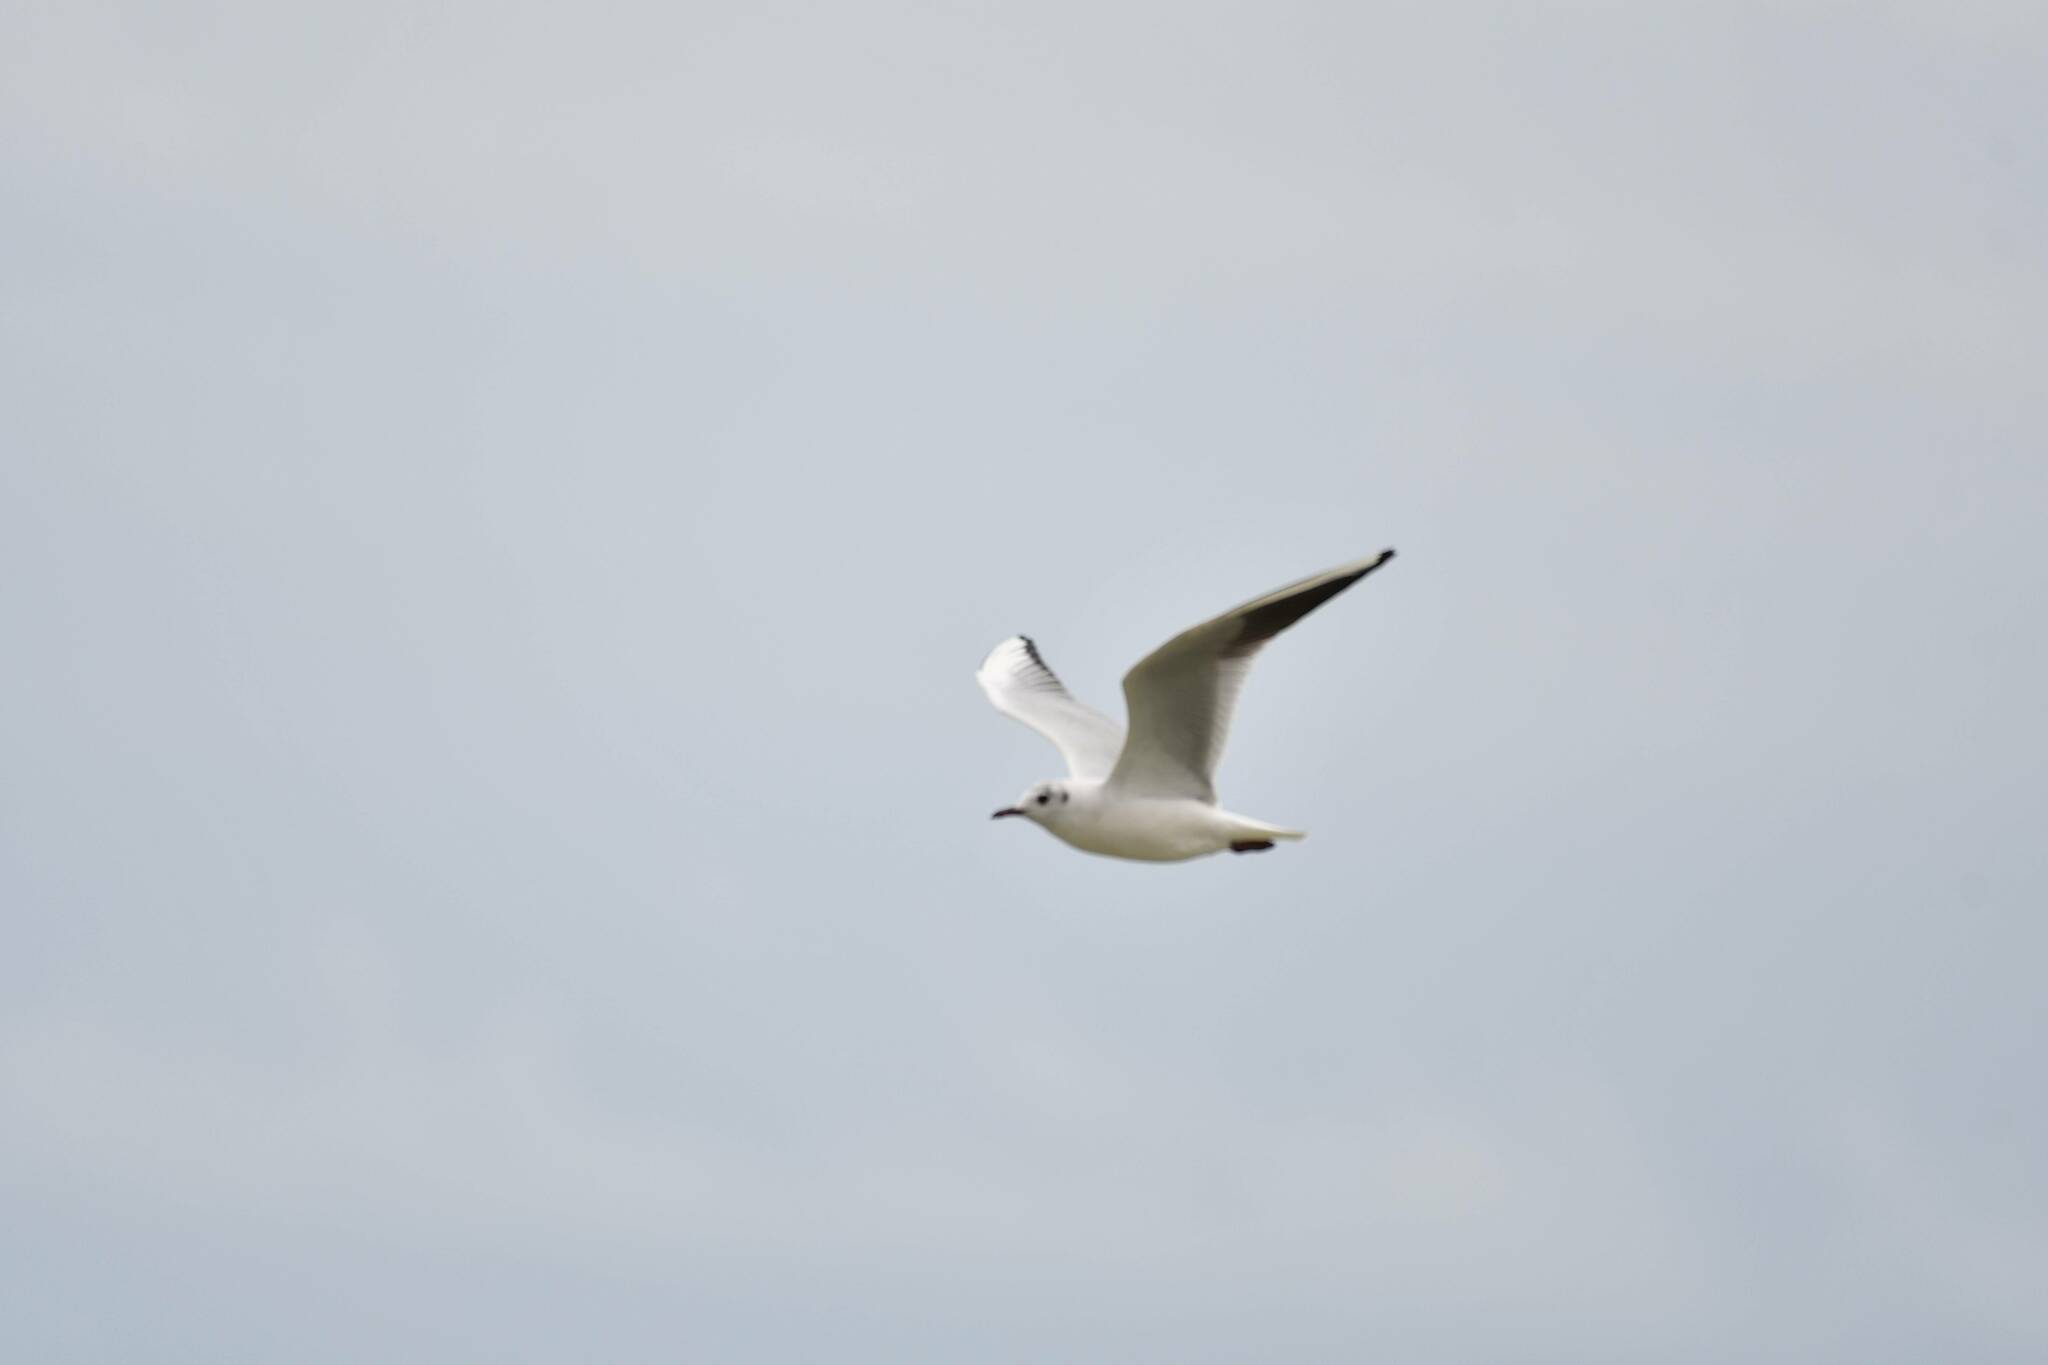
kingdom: Animalia
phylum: Chordata
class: Aves
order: Charadriiformes
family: Laridae
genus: Chroicocephalus
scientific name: Chroicocephalus ridibundus
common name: Black-headed gull
